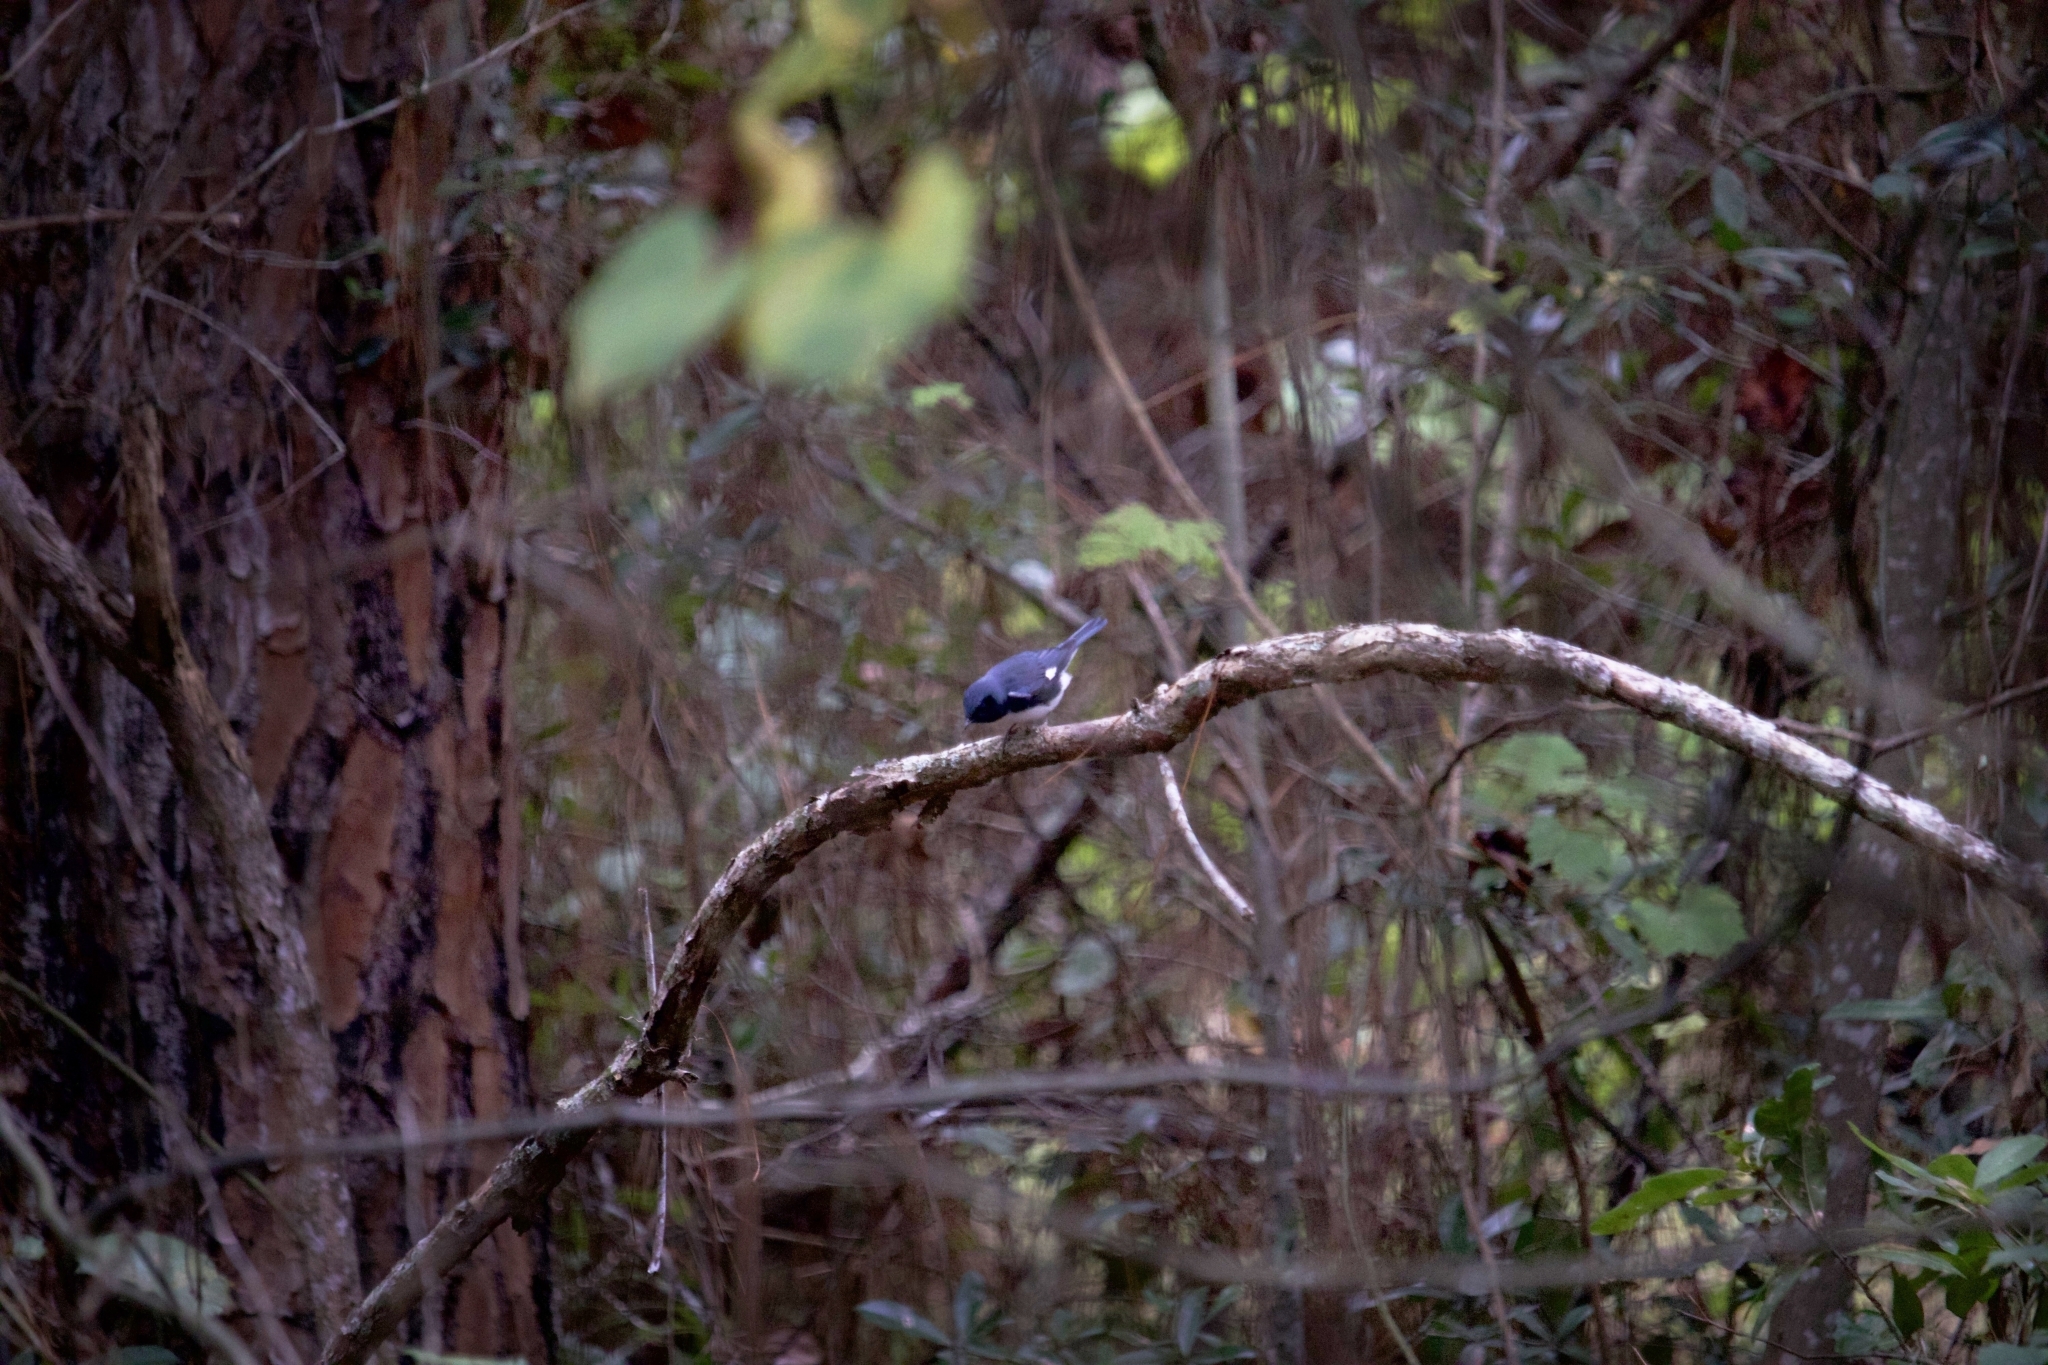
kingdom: Animalia
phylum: Chordata
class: Aves
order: Passeriformes
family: Parulidae
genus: Setophaga
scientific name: Setophaga caerulescens
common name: Black-throated blue warbler
